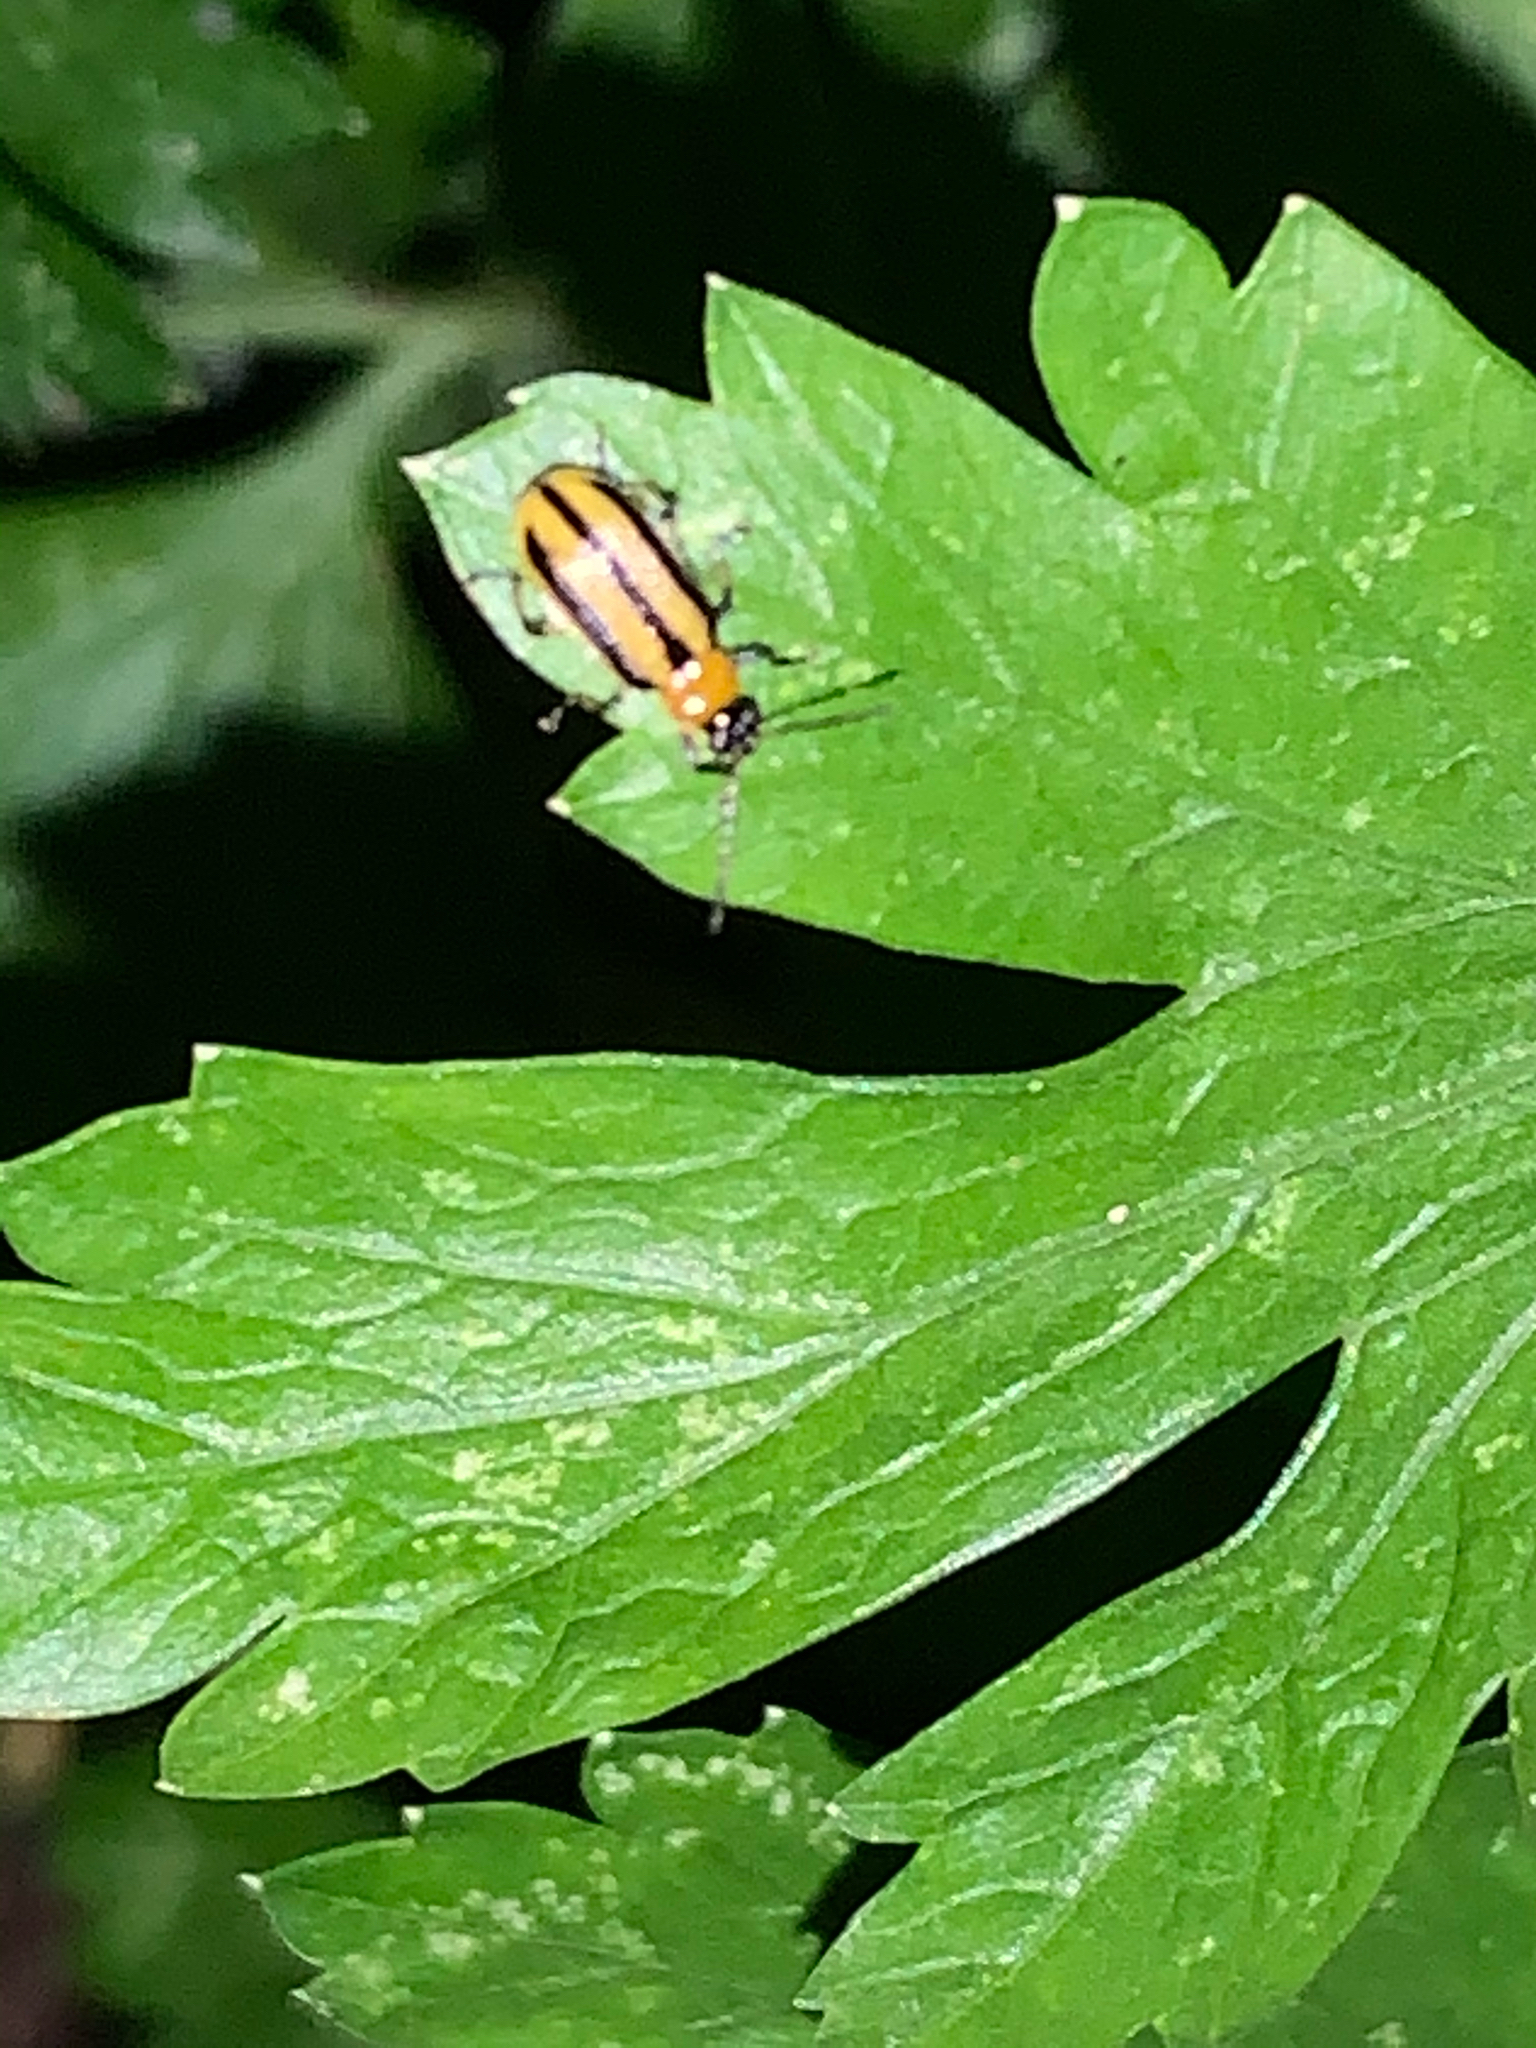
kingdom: Animalia
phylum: Arthropoda
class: Insecta
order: Coleoptera
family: Chrysomelidae
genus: Acalymma
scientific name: Acalymma vittatum
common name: Striped cucumber beetle
